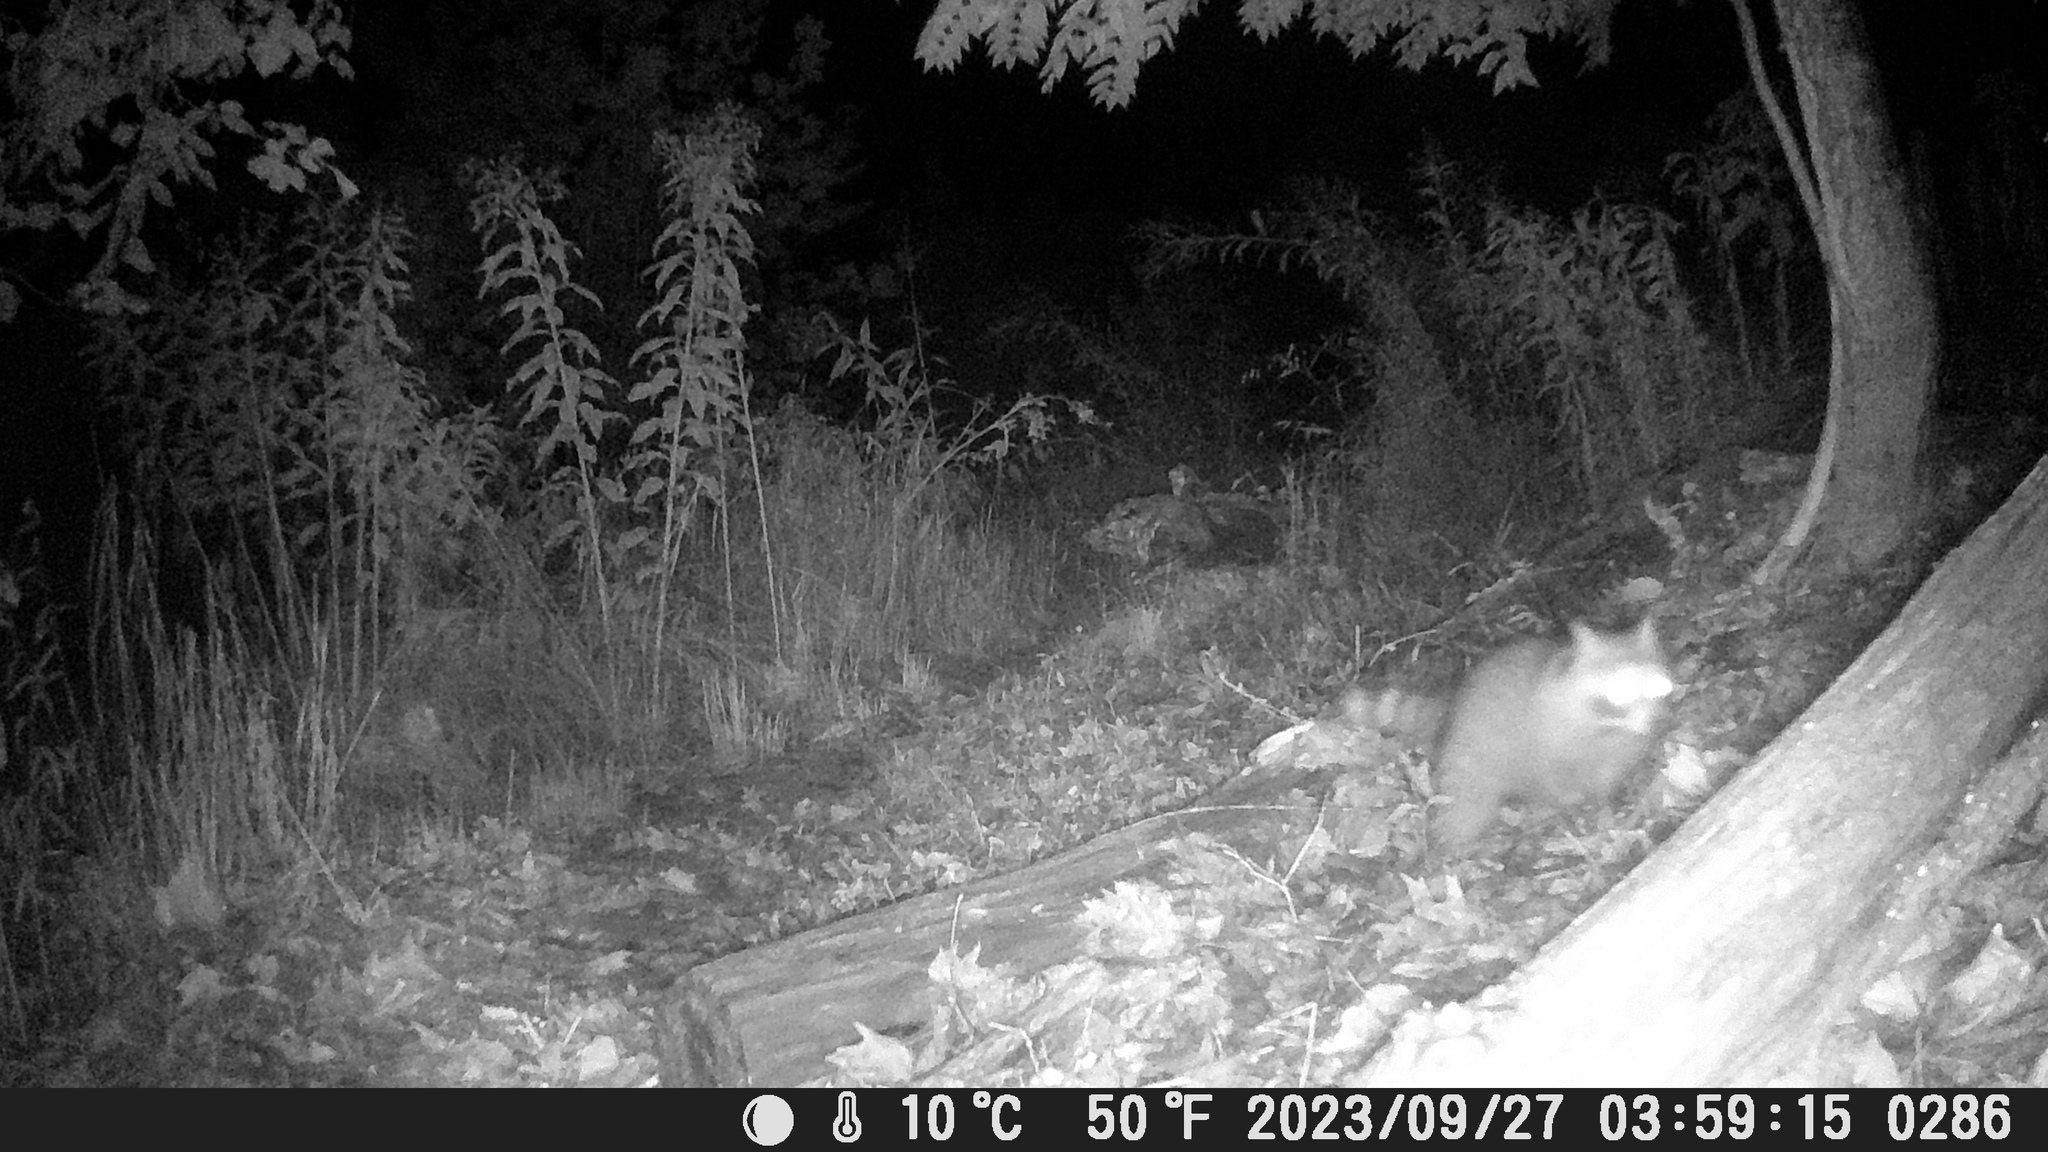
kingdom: Animalia
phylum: Chordata
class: Mammalia
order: Carnivora
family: Procyonidae
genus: Procyon
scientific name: Procyon lotor
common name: Raccoon
